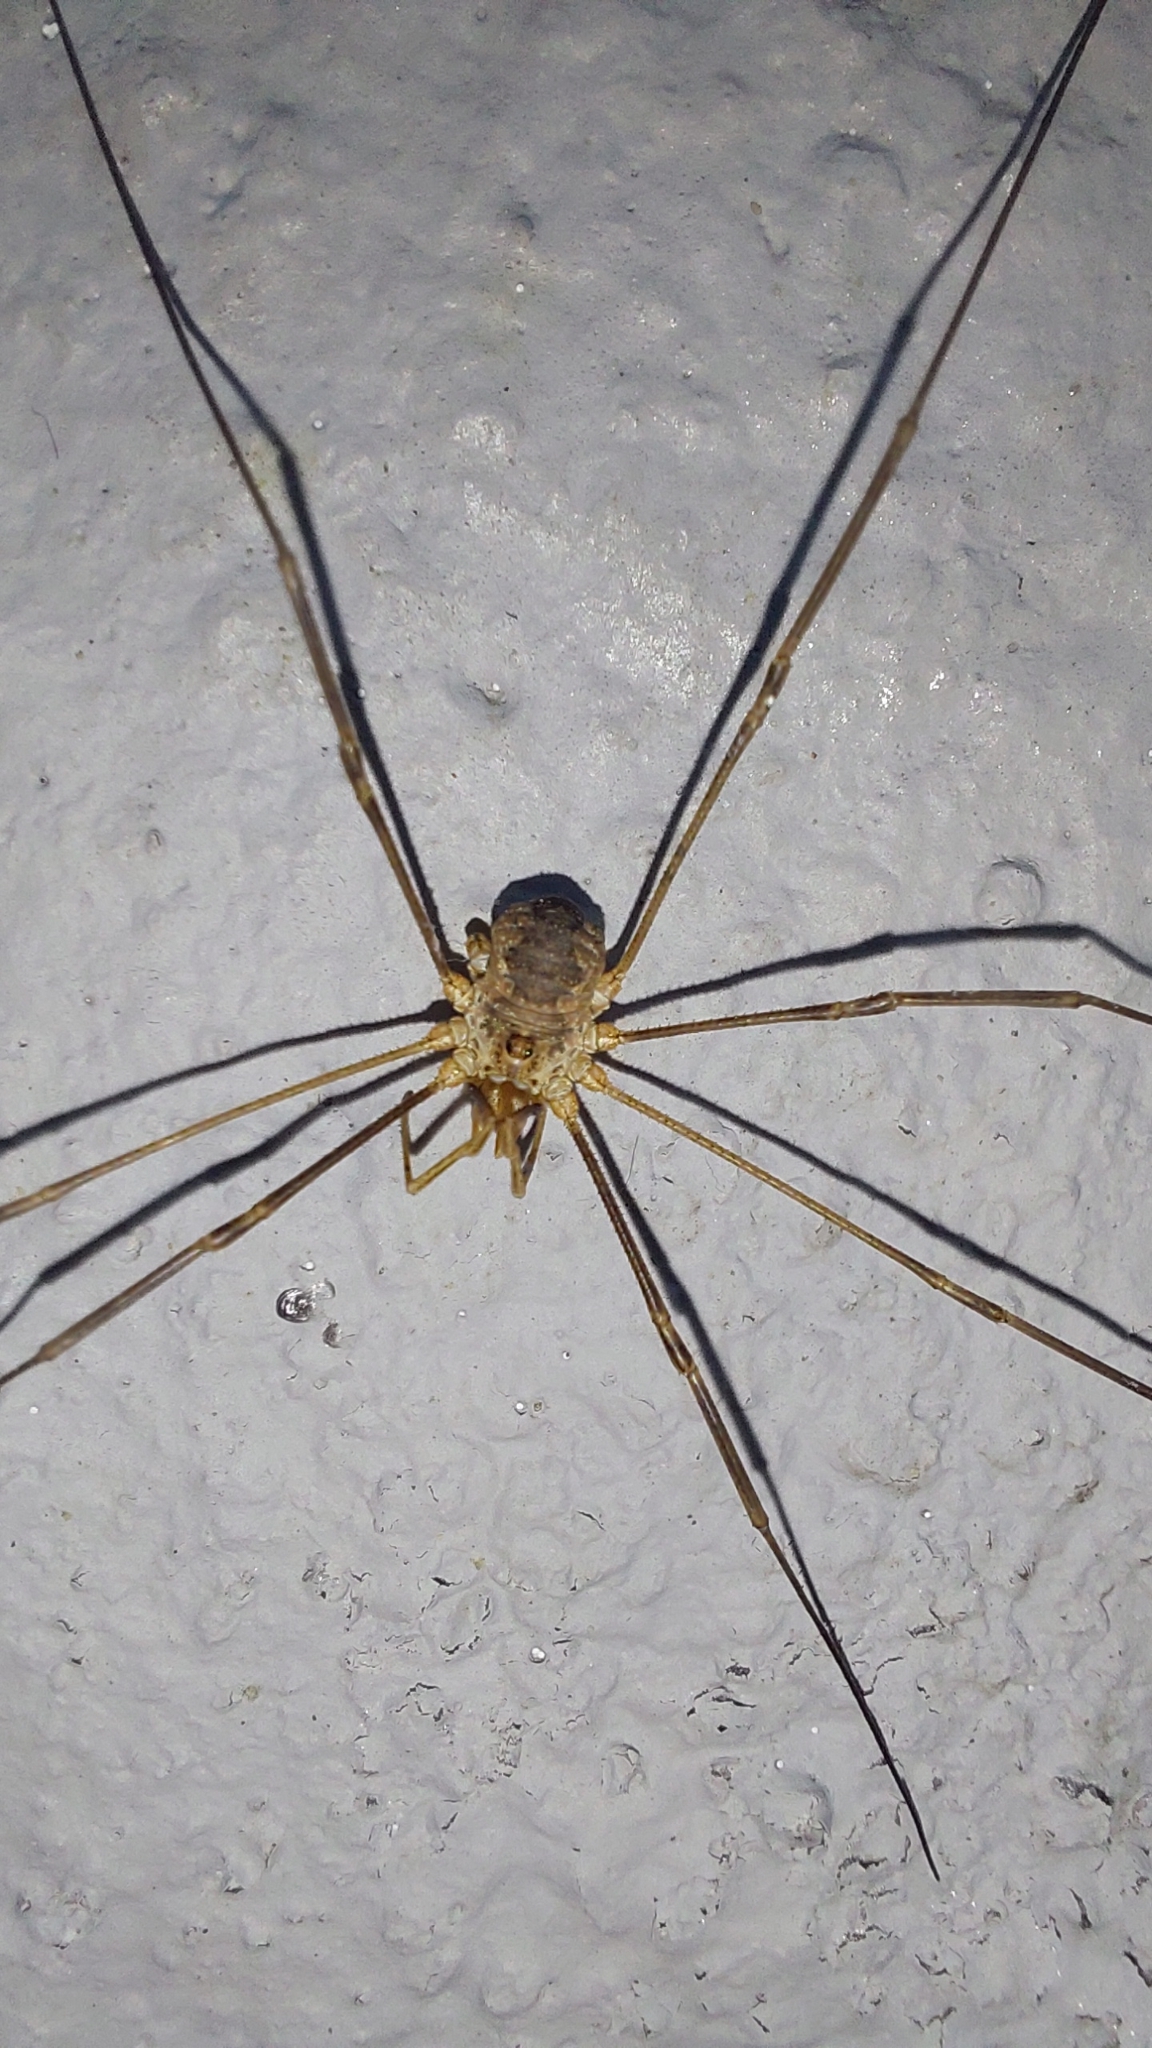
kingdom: Animalia
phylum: Arthropoda
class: Arachnida
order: Opiliones
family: Phalangiidae
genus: Phalangium
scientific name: Phalangium opilio
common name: Daddy longleg
